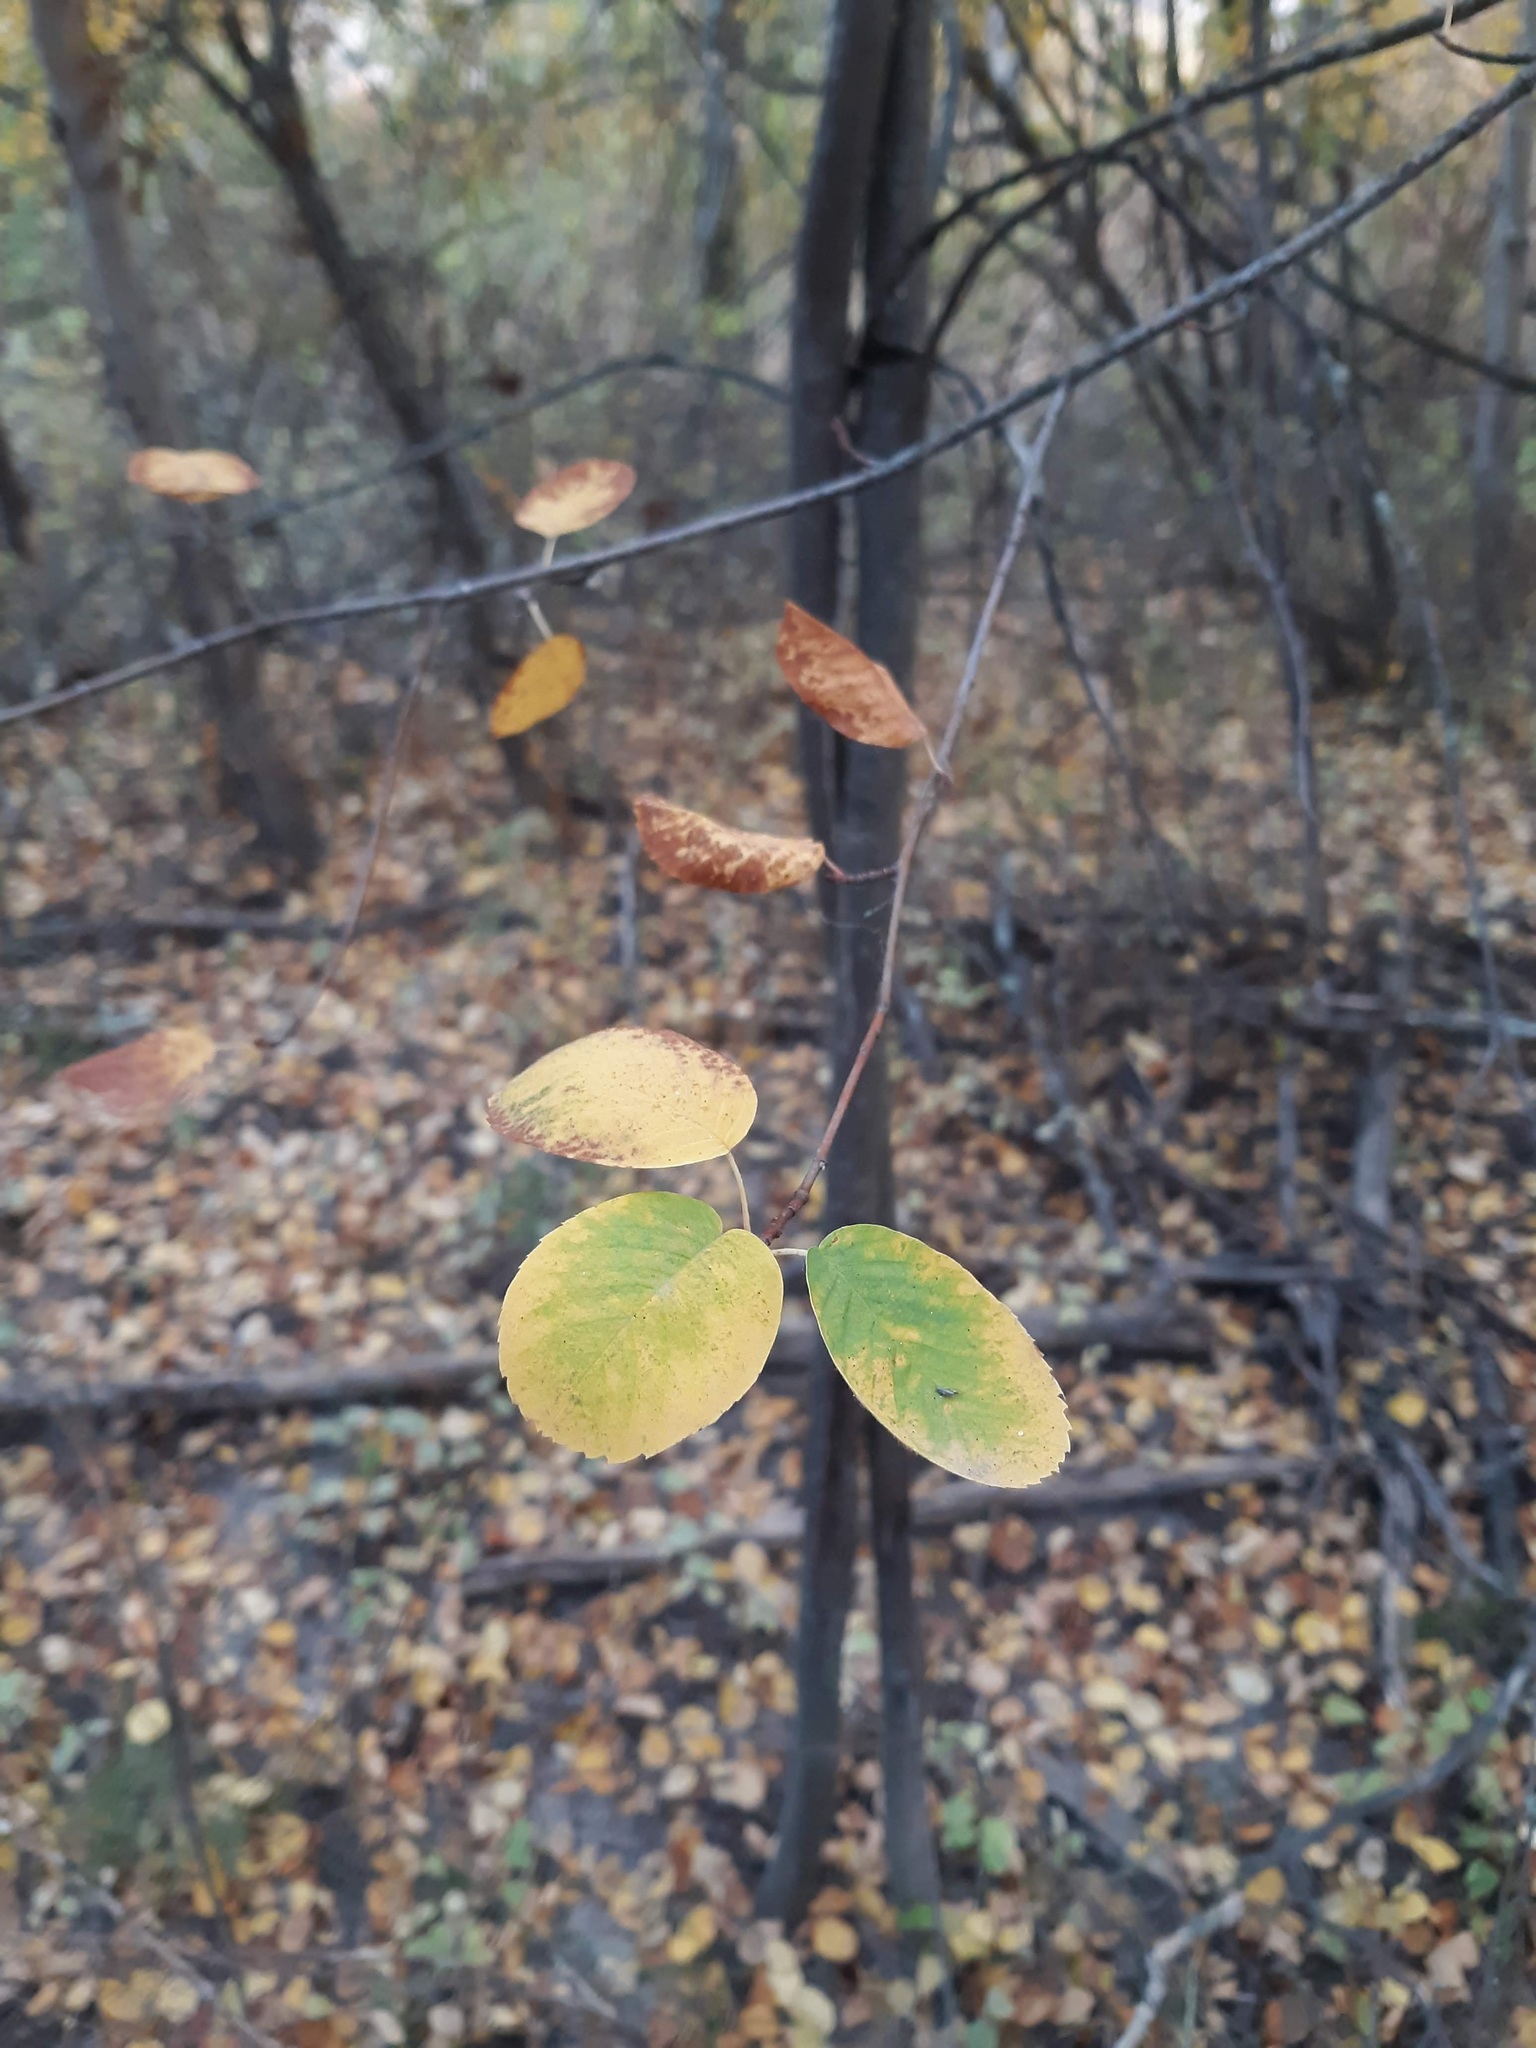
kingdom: Plantae
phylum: Tracheophyta
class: Magnoliopsida
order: Rosales
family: Rosaceae
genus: Amelanchier
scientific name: Amelanchier alnifolia
